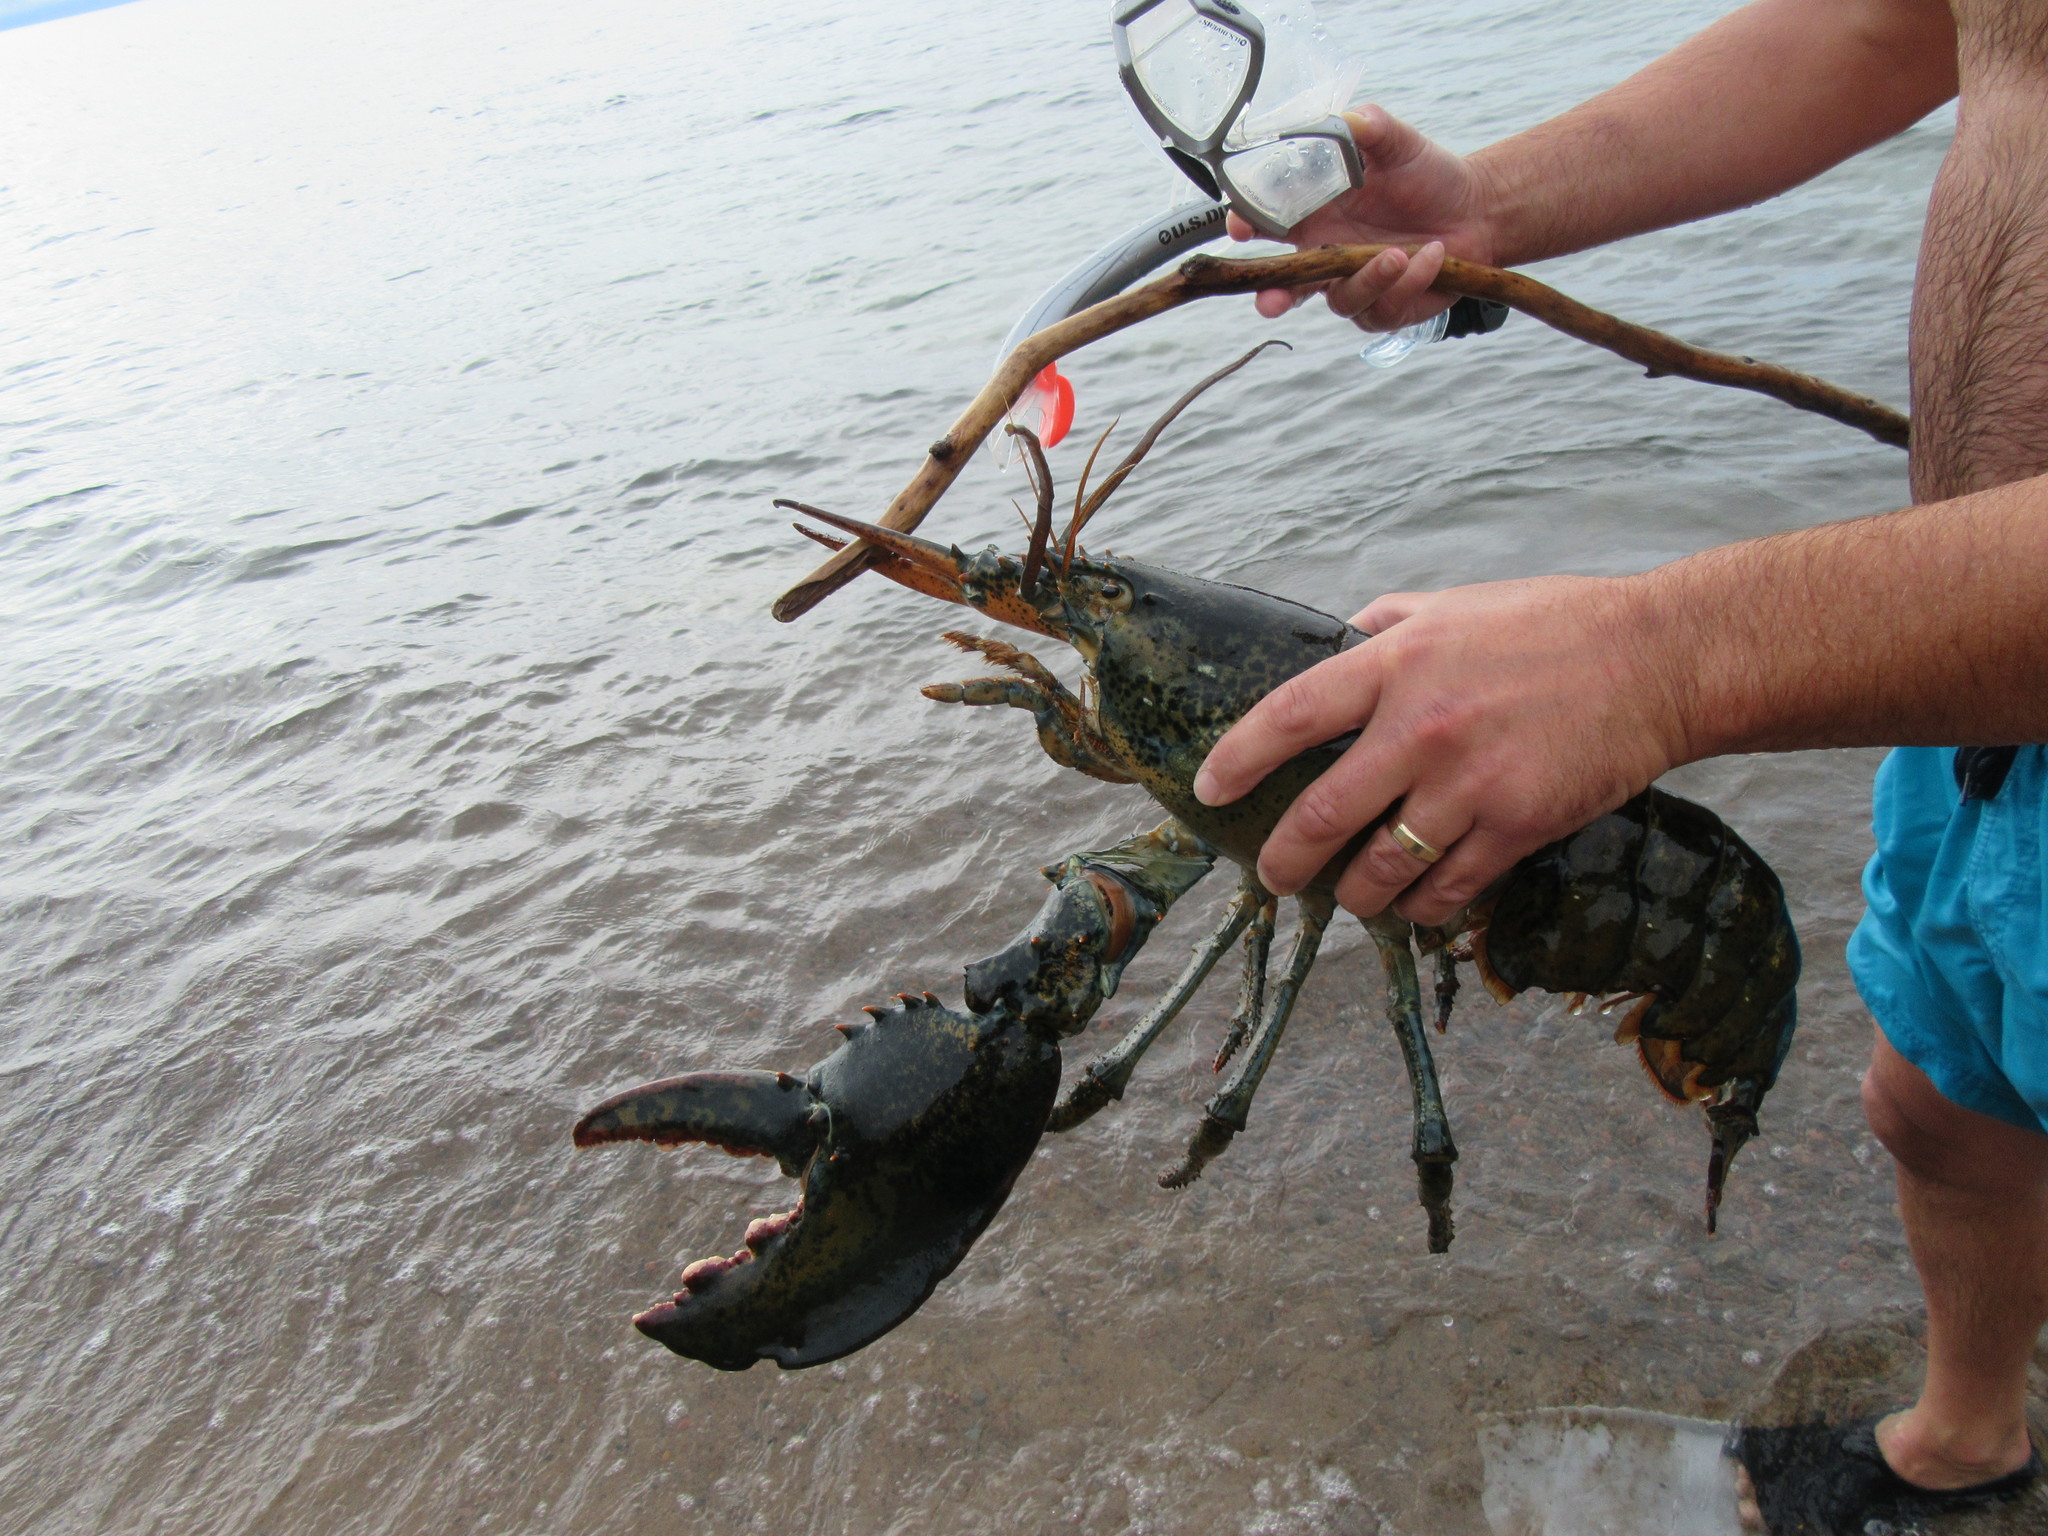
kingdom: Animalia
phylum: Arthropoda
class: Malacostraca
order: Decapoda
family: Nephropidae
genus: Homarus
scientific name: Homarus americanus
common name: American lobster
